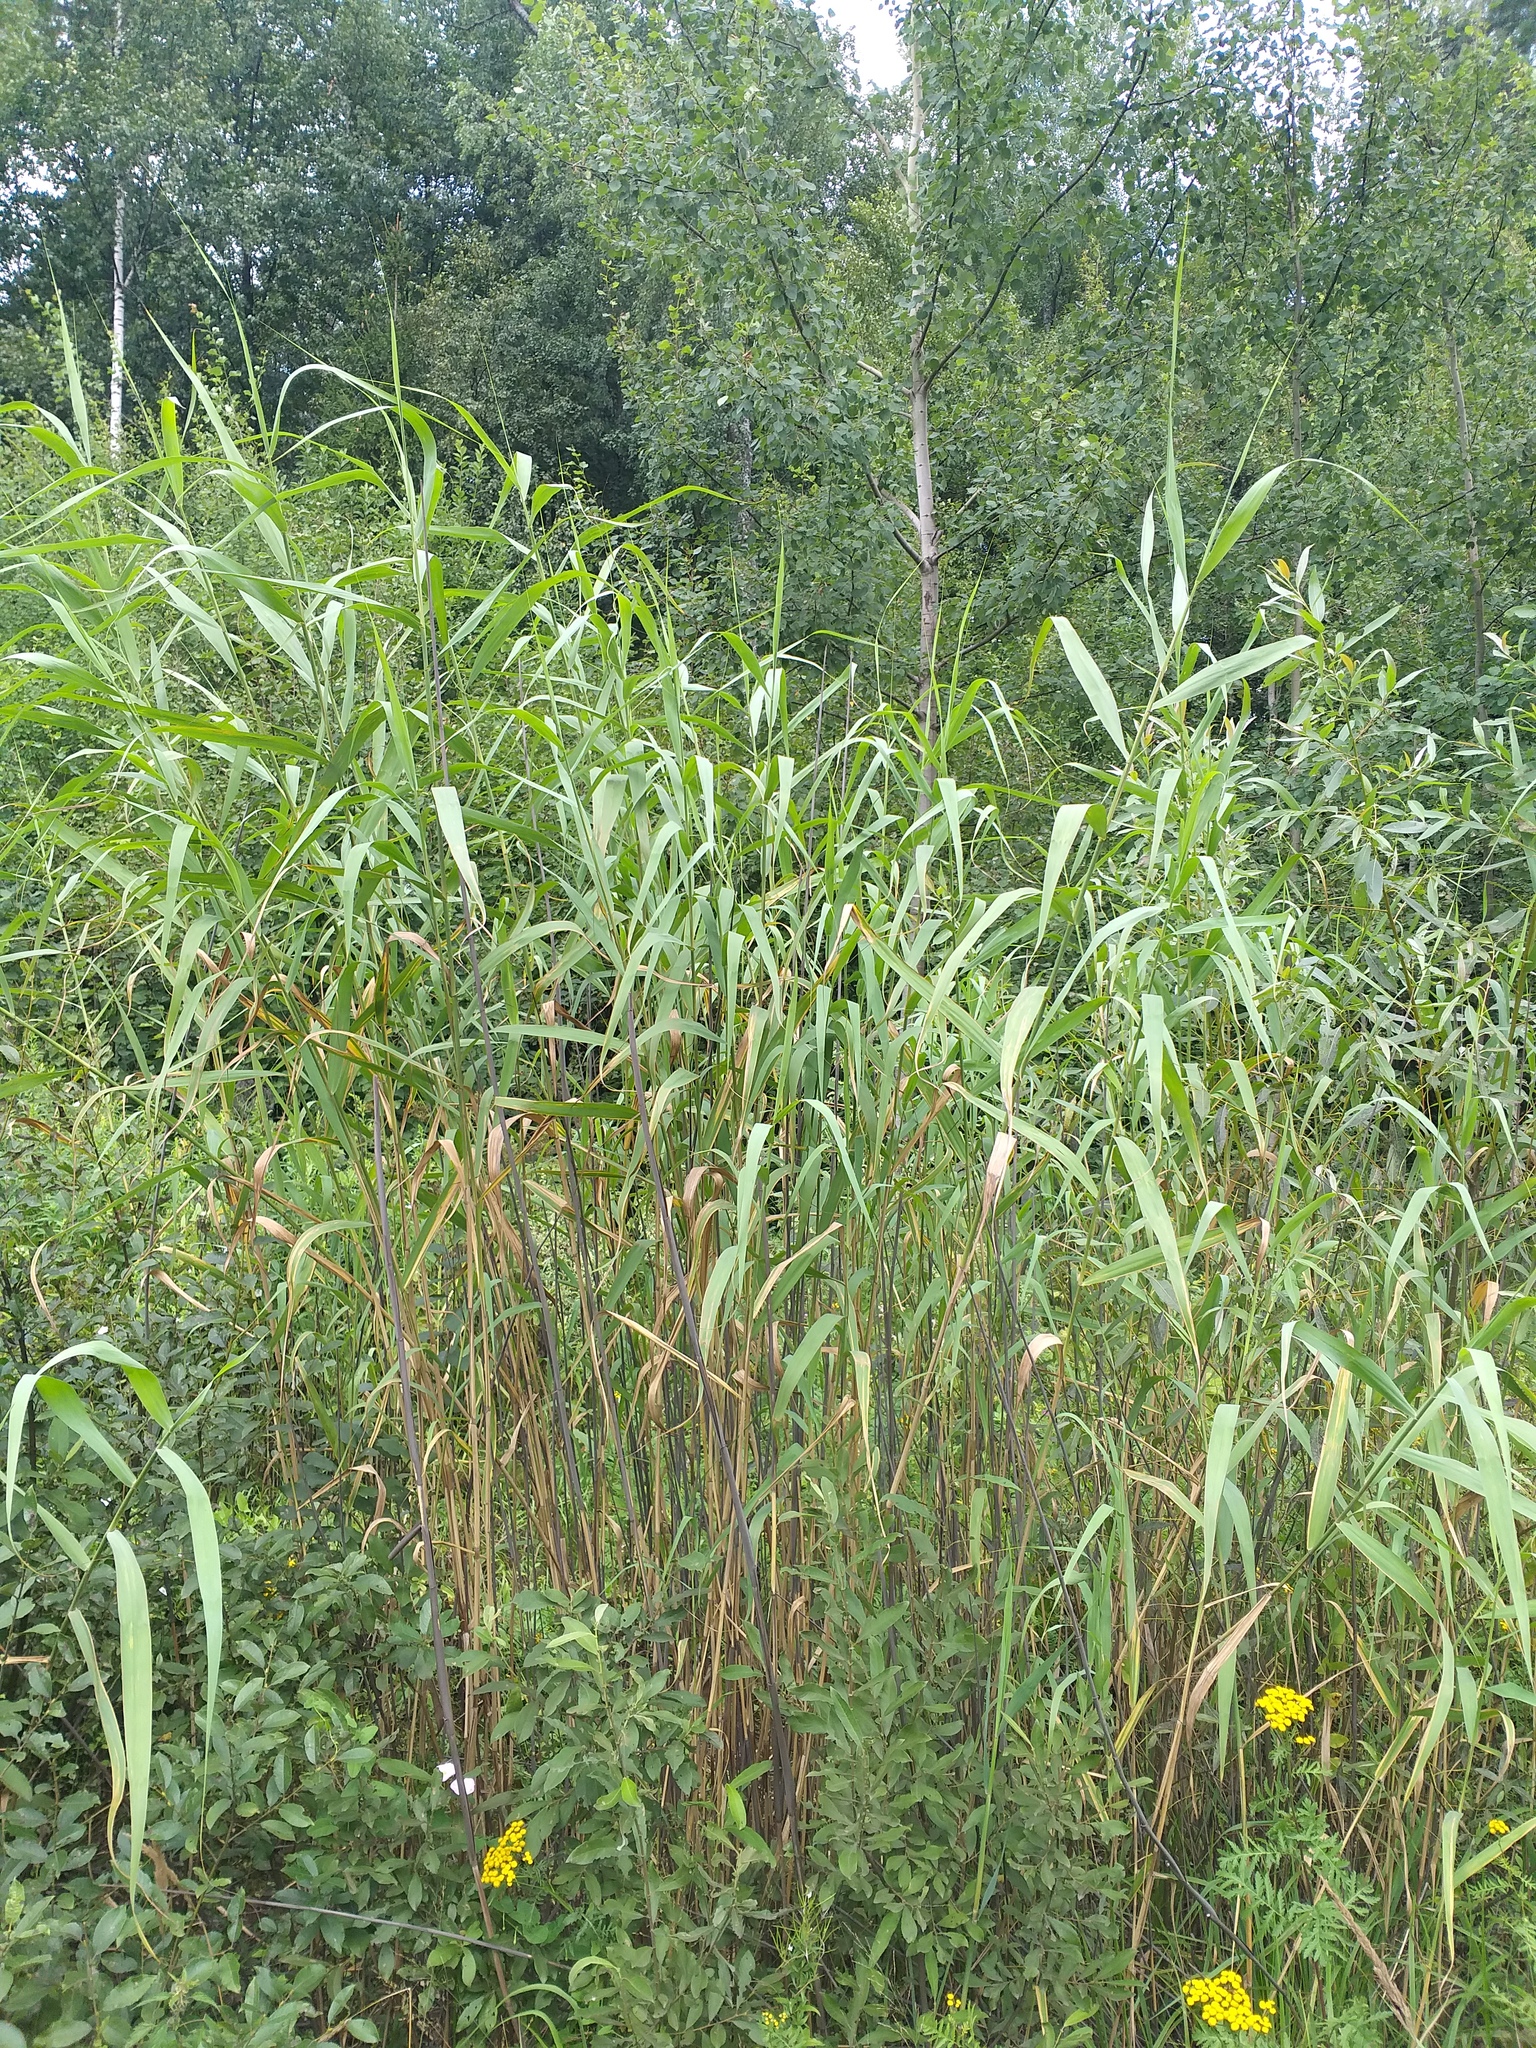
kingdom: Plantae
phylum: Tracheophyta
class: Liliopsida
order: Poales
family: Poaceae
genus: Phragmites
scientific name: Phragmites australis
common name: Common reed
